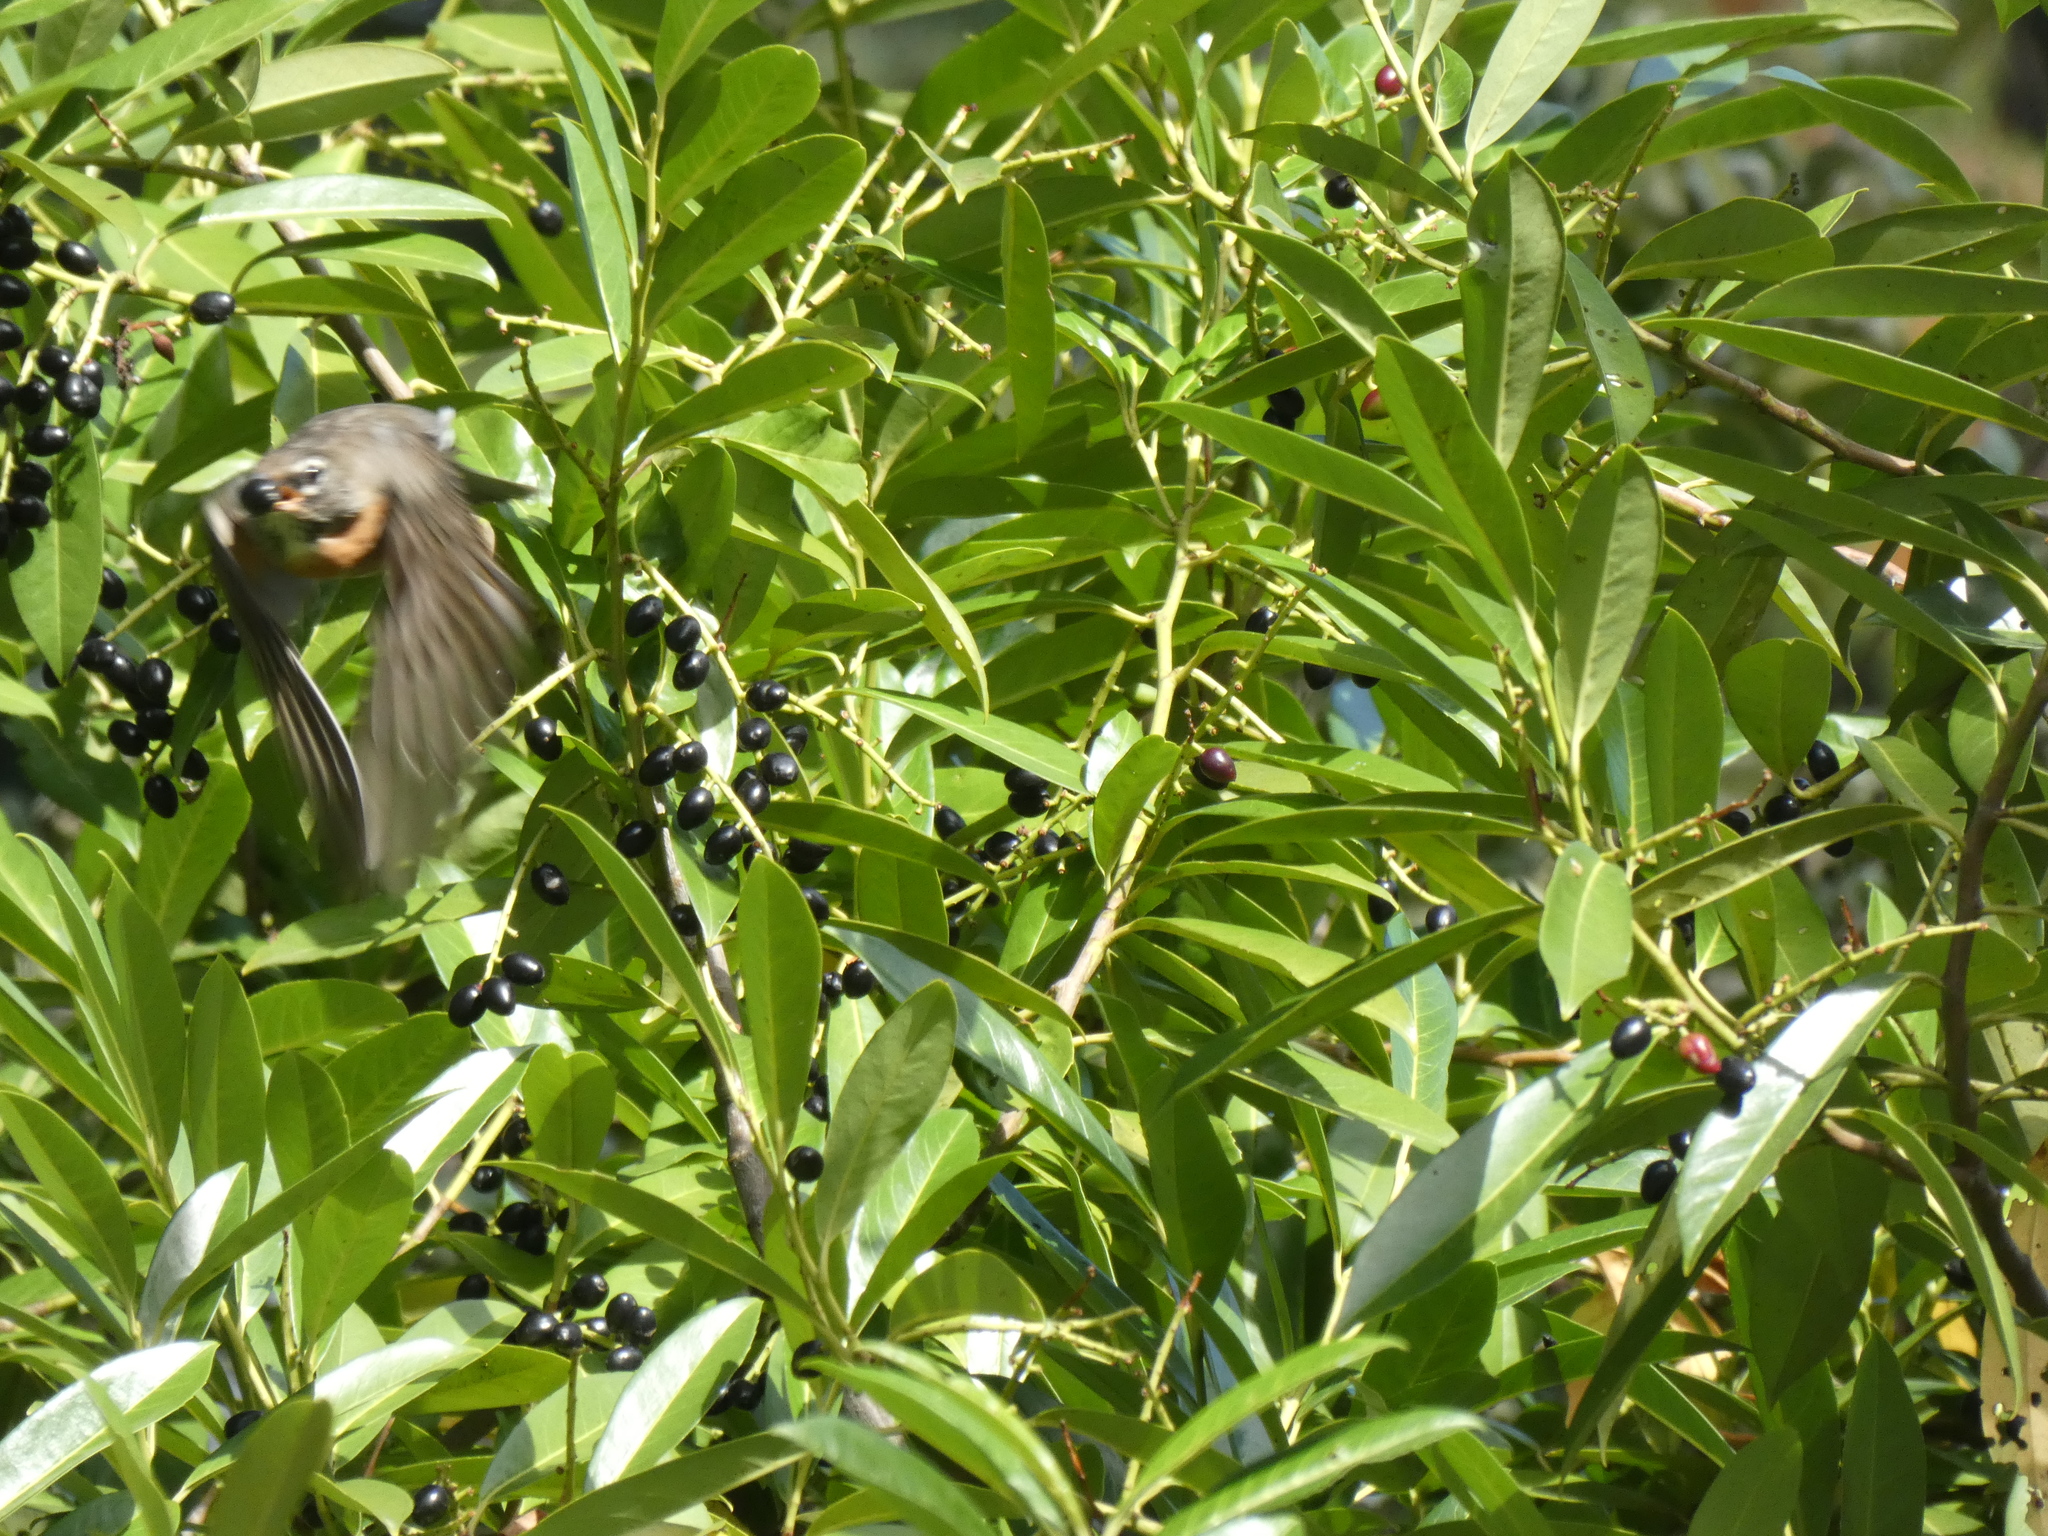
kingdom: Animalia
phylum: Chordata
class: Aves
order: Passeriformes
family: Turdidae
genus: Turdus
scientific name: Turdus migratorius
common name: American robin
